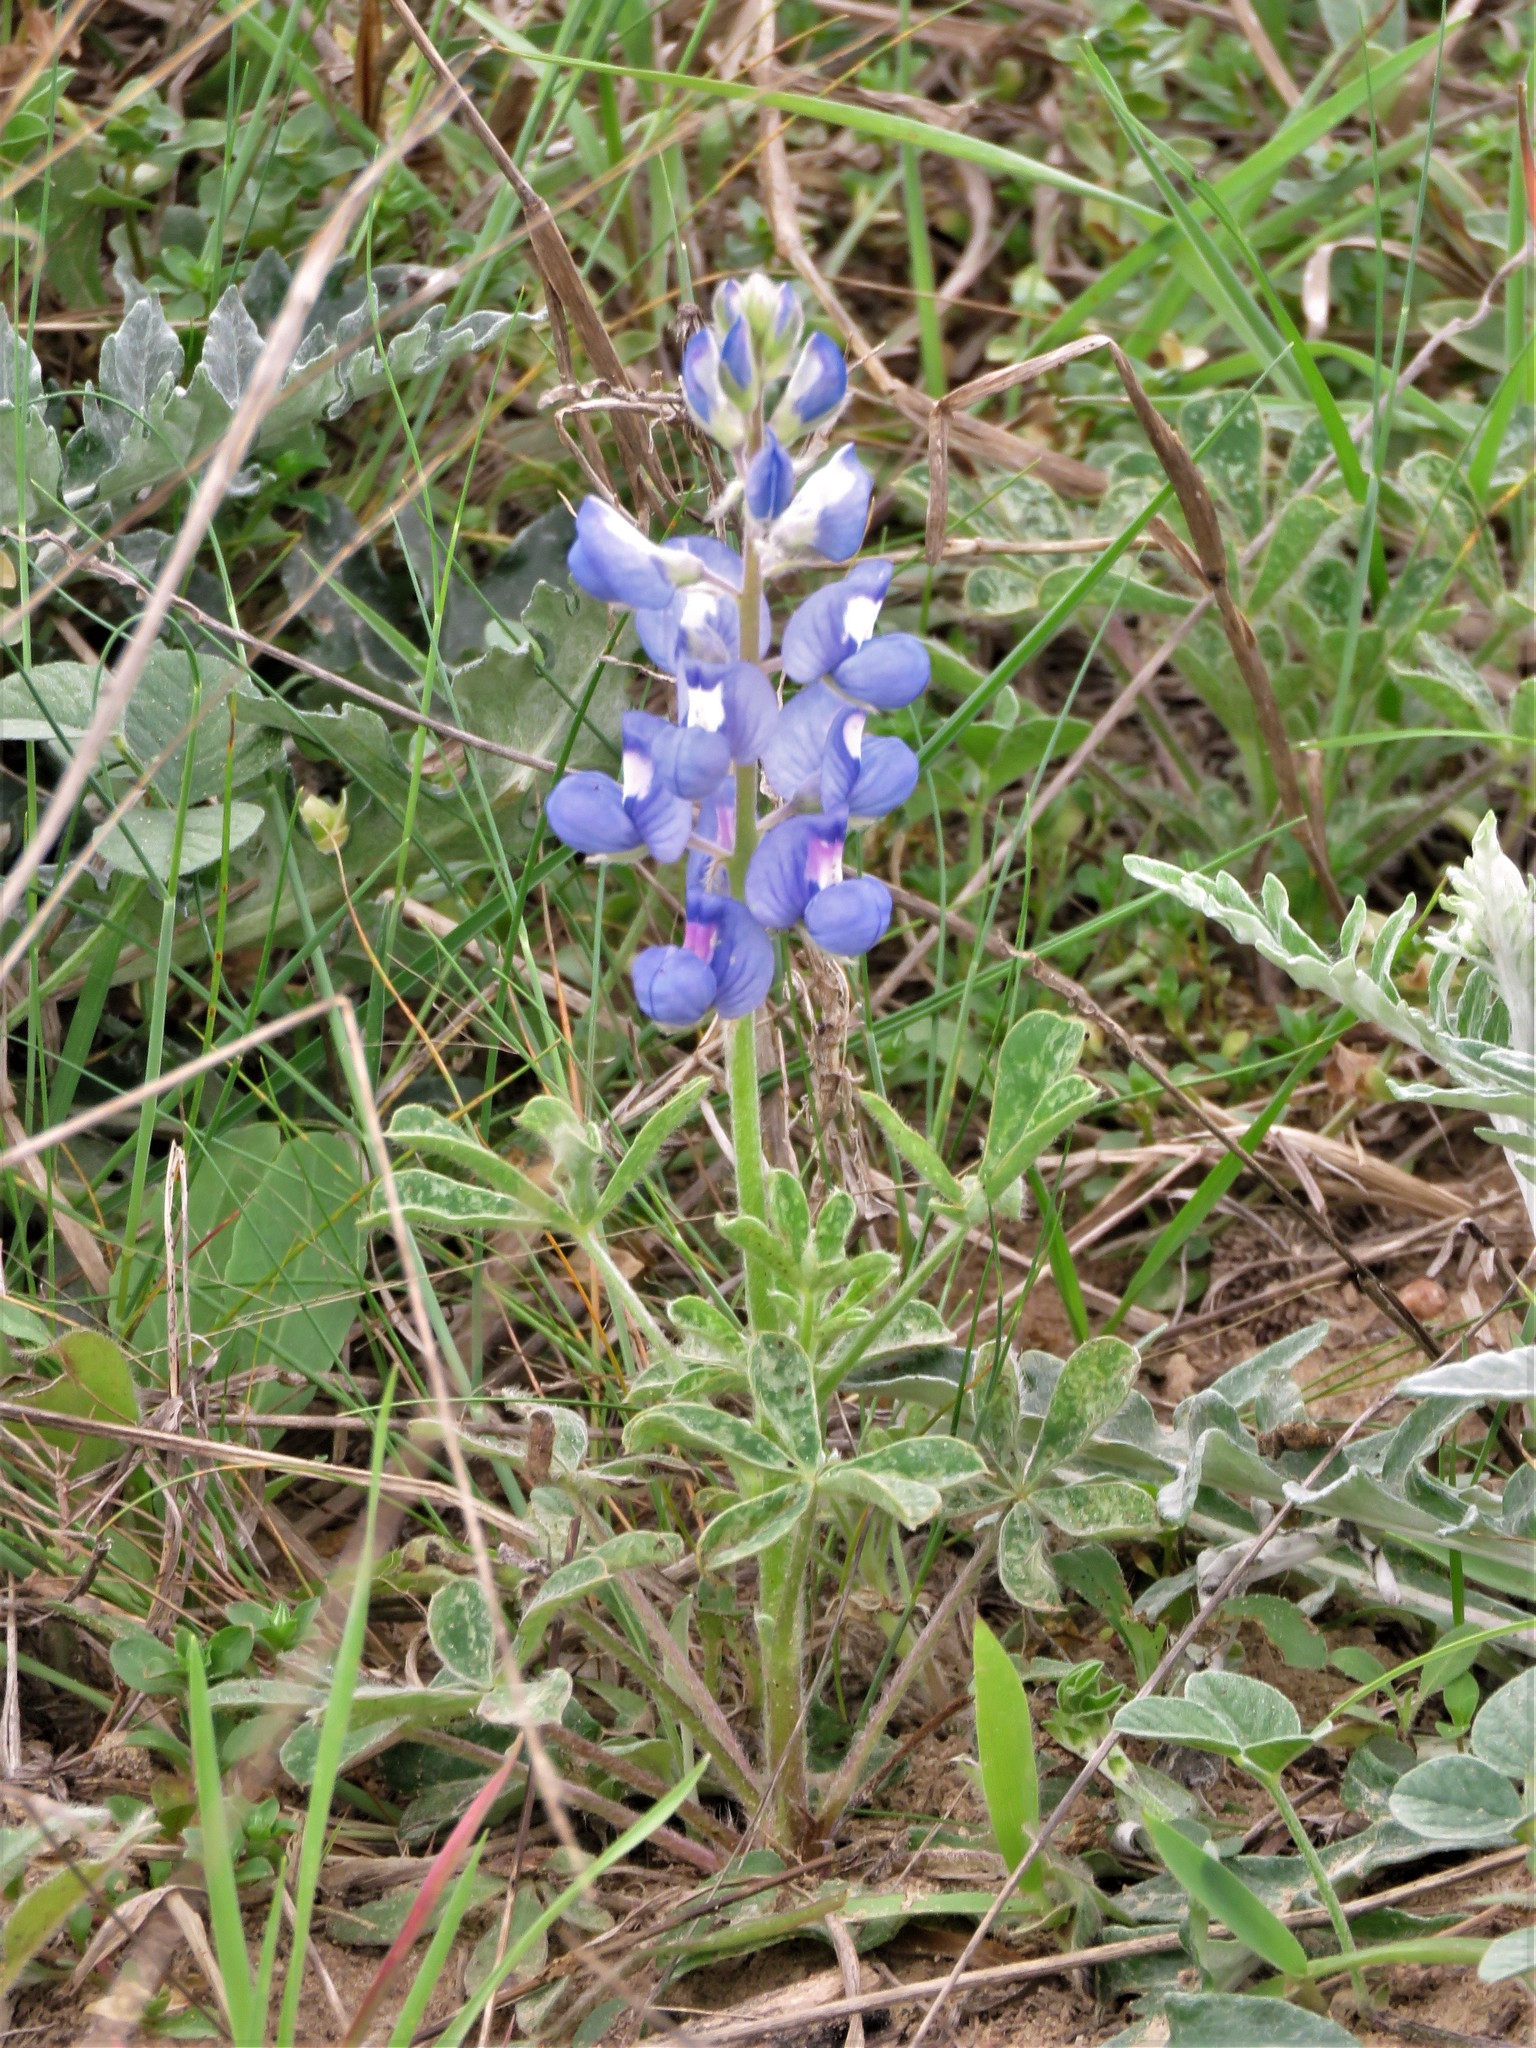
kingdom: Plantae
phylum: Tracheophyta
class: Magnoliopsida
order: Fabales
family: Fabaceae
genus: Lupinus
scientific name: Lupinus subcarnosus
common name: Texas bluebonnet
